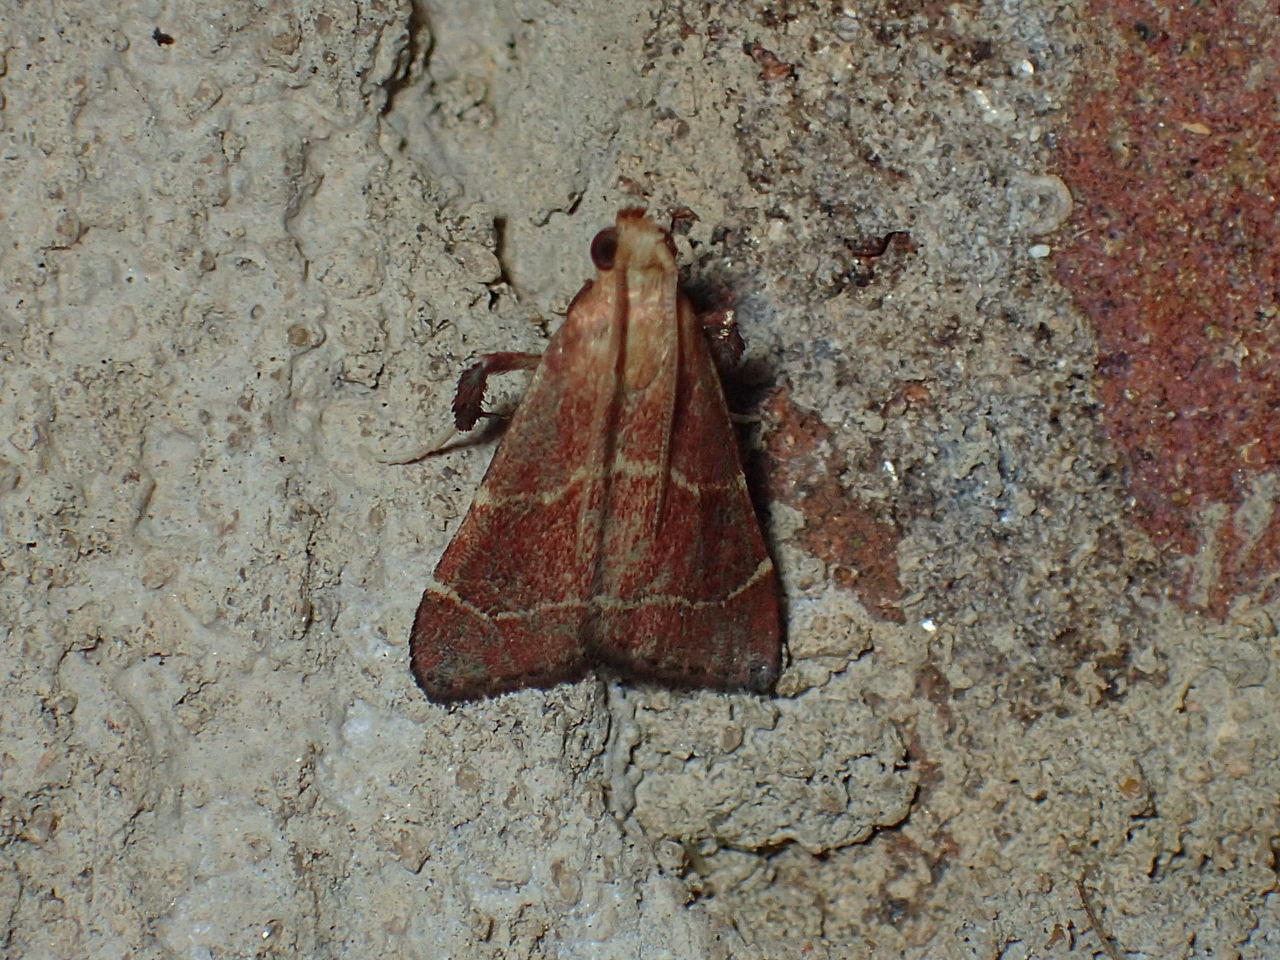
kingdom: Animalia
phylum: Arthropoda
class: Insecta
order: Lepidoptera
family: Pyralidae
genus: Arta
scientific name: Arta statalis
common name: Posturing arta moth
